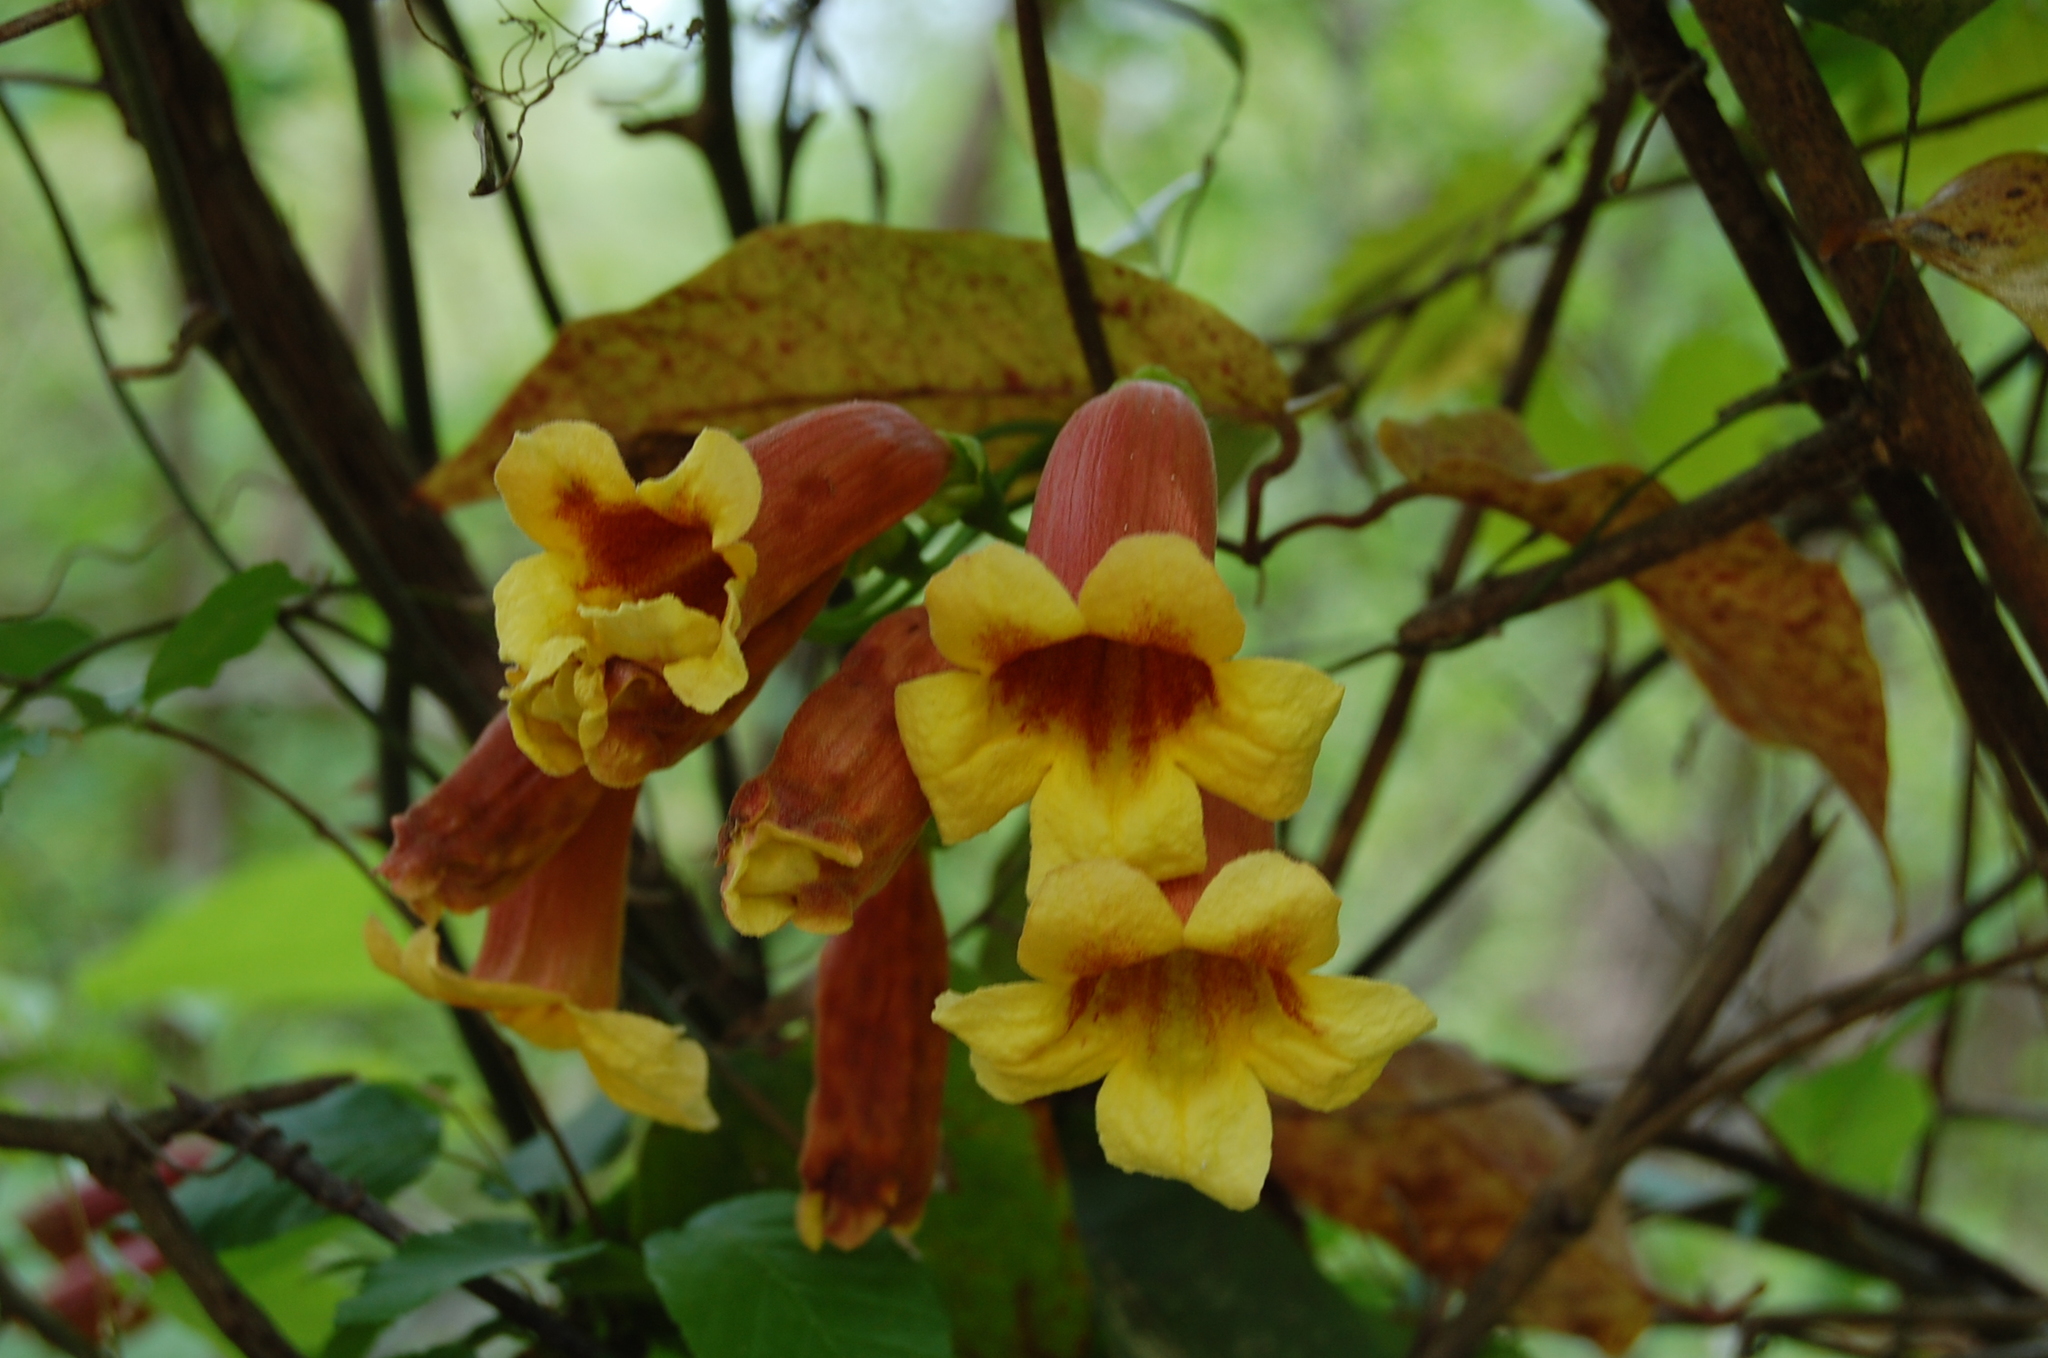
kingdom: Plantae
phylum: Tracheophyta
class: Magnoliopsida
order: Lamiales
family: Bignoniaceae
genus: Bignonia
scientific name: Bignonia capreolata
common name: Crossvine
